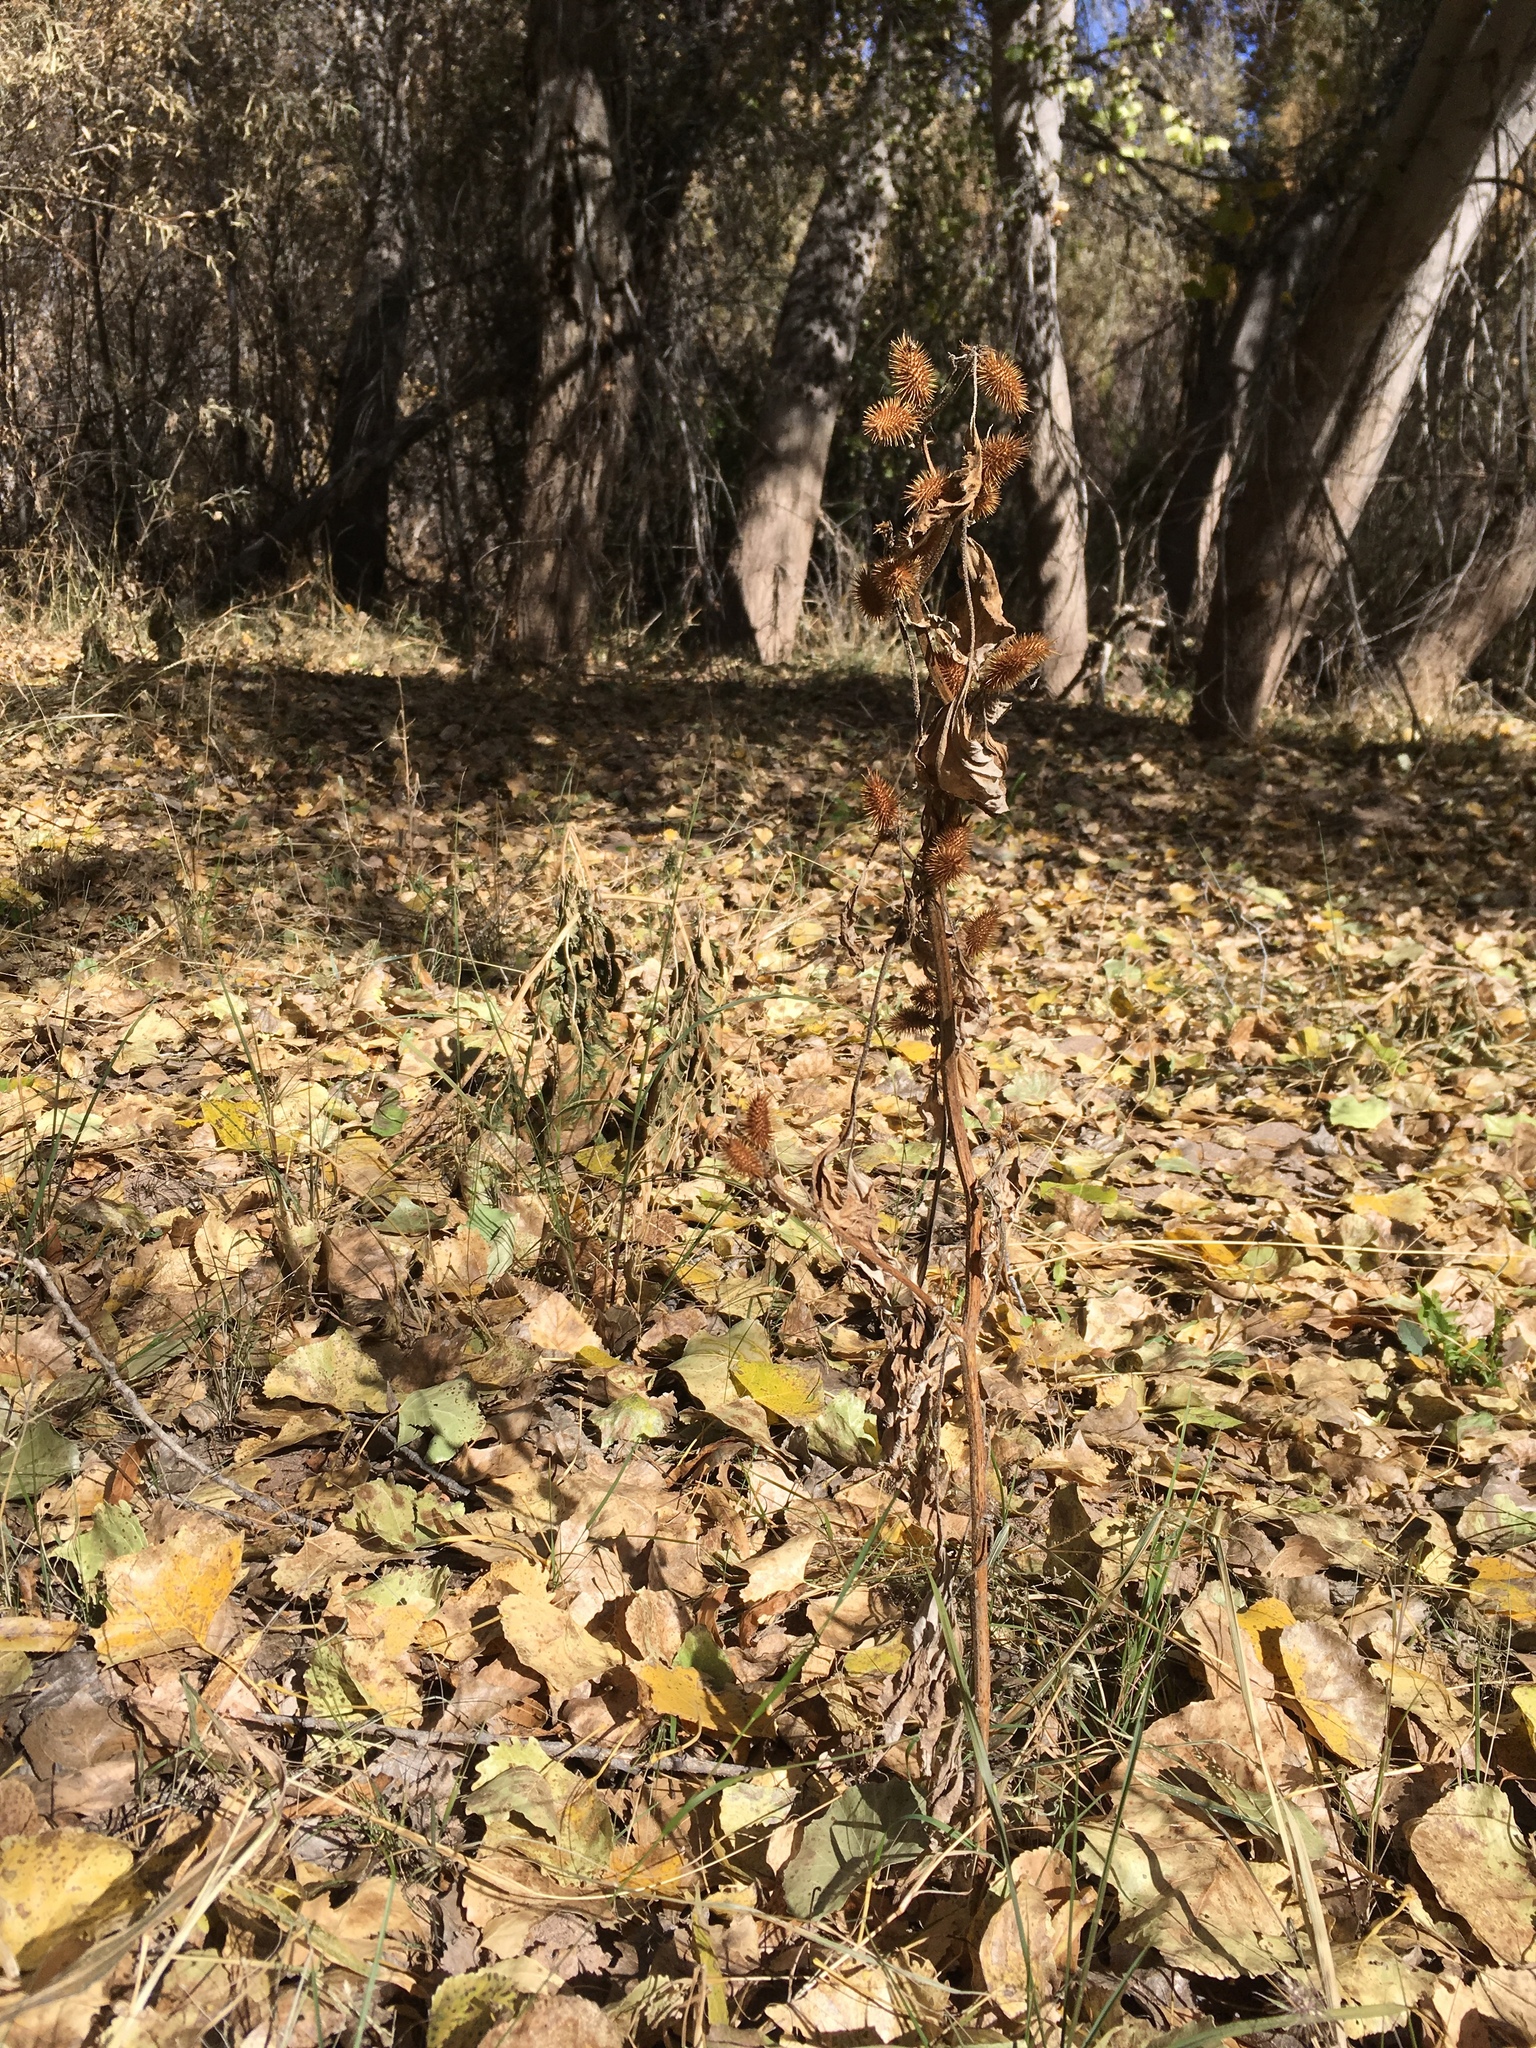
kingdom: Plantae
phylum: Tracheophyta
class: Magnoliopsida
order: Asterales
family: Asteraceae
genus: Xanthium
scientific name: Xanthium strumarium
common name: Rough cocklebur
